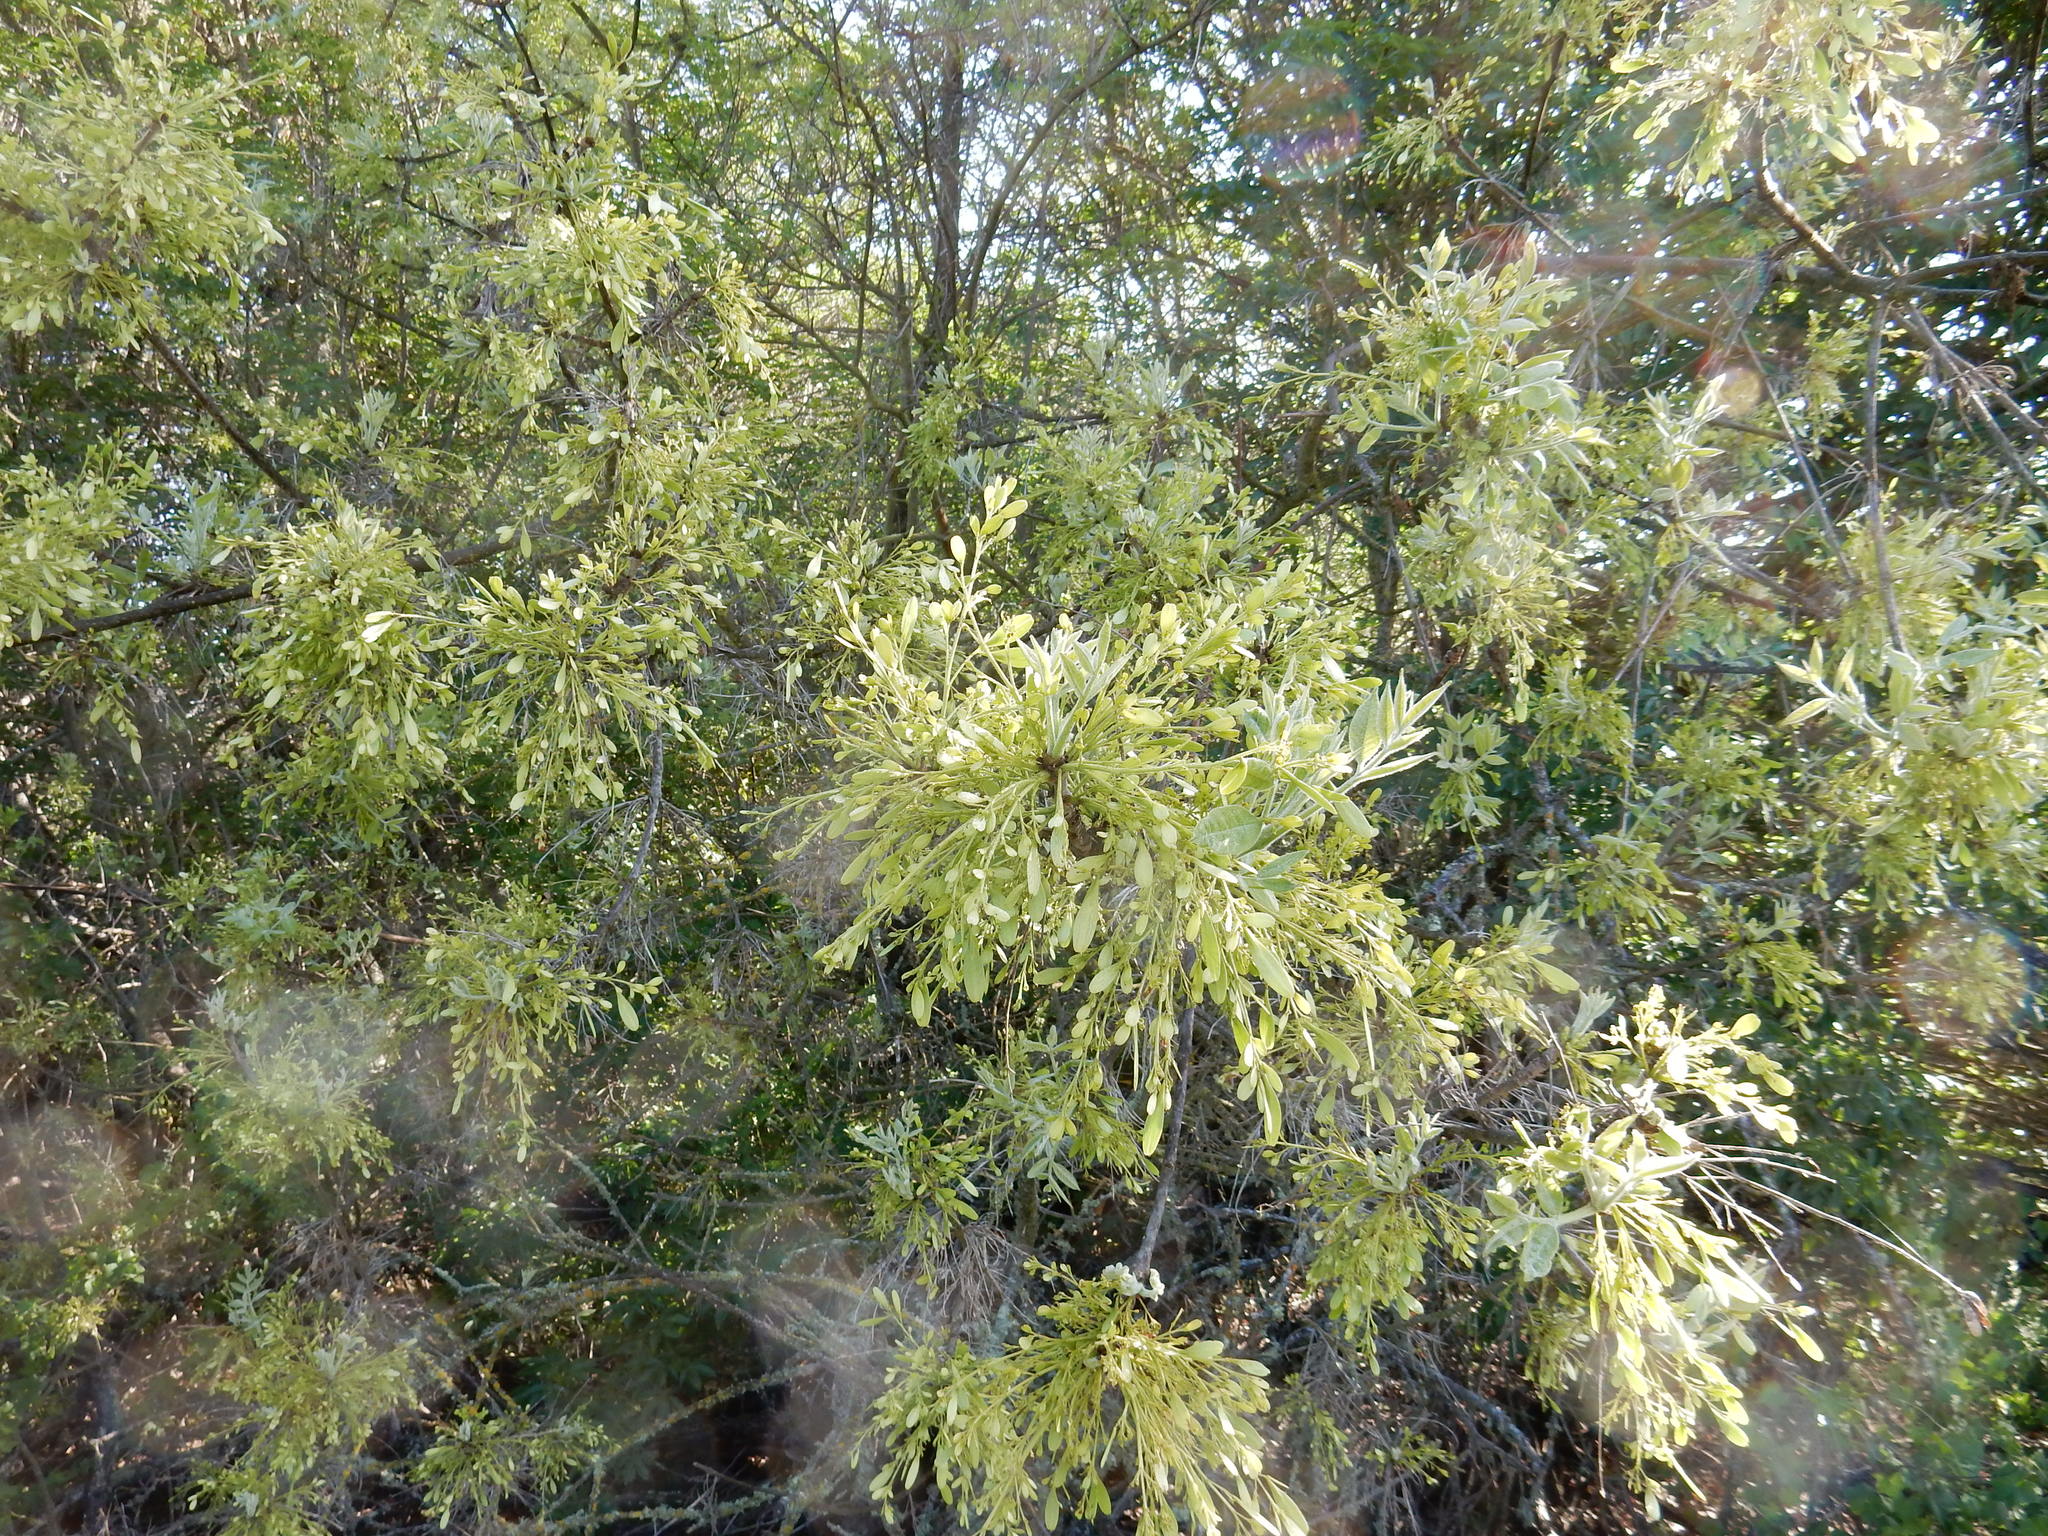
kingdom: Plantae
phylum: Tracheophyta
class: Magnoliopsida
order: Sapindales
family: Sapindaceae
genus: Acer
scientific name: Acer negundo
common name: Ashleaf maple
